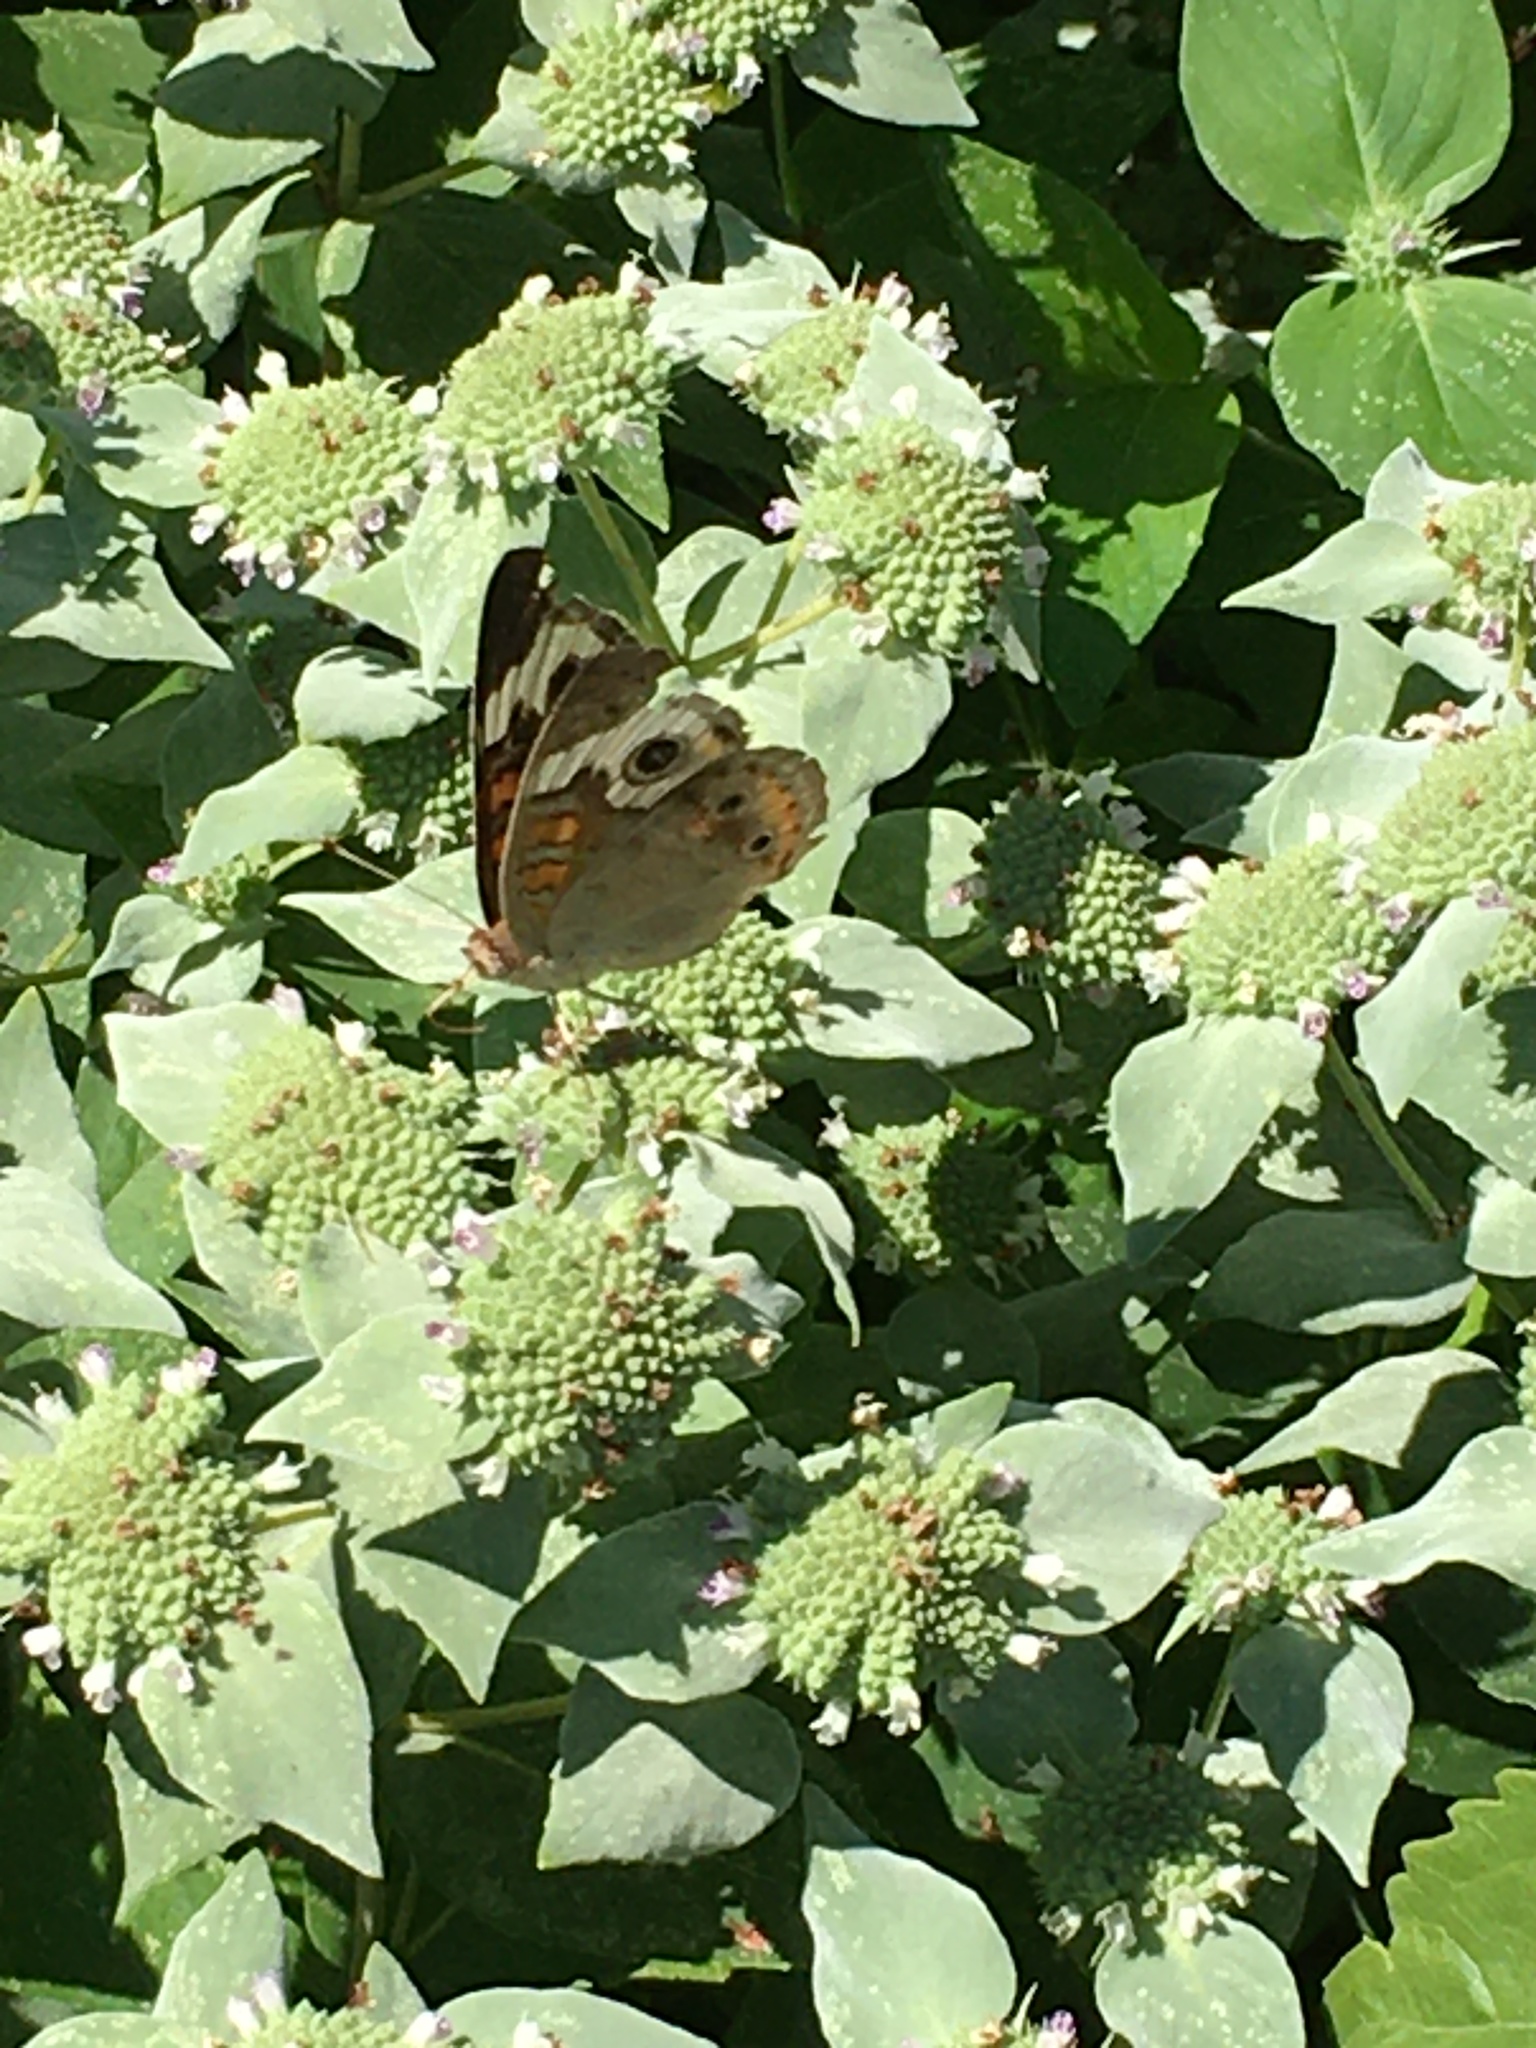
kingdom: Animalia
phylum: Arthropoda
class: Insecta
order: Lepidoptera
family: Nymphalidae
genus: Junonia
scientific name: Junonia coenia
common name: Common buckeye
